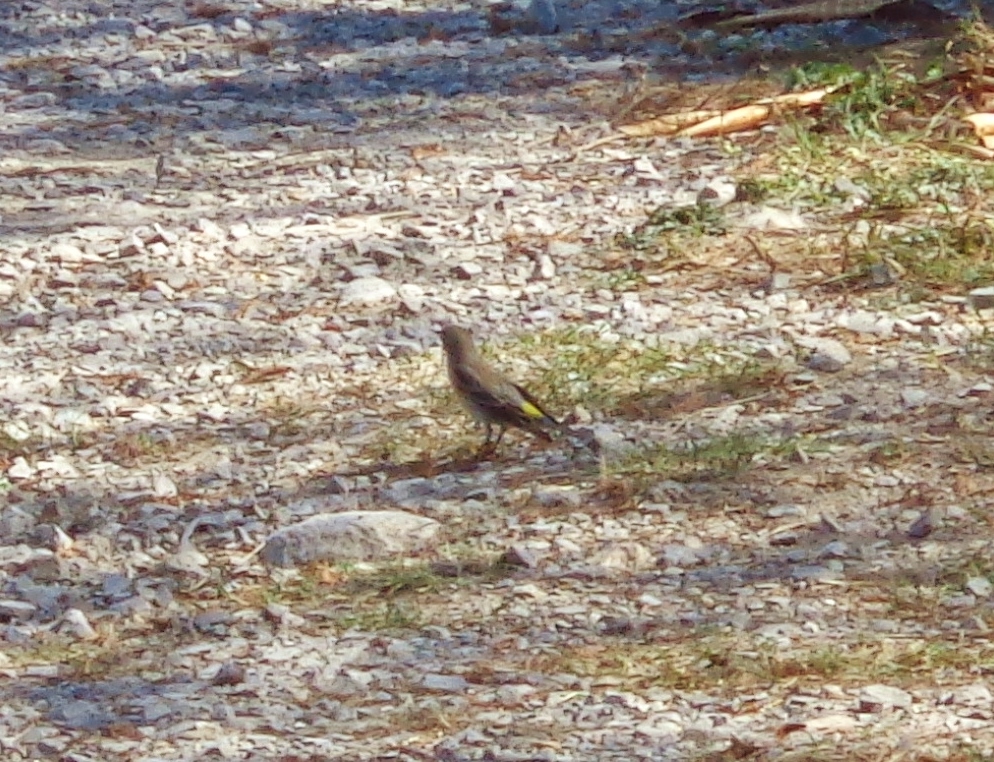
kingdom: Animalia
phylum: Chordata
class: Aves
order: Passeriformes
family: Parulidae
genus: Setophaga
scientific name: Setophaga coronata
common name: Myrtle warbler
